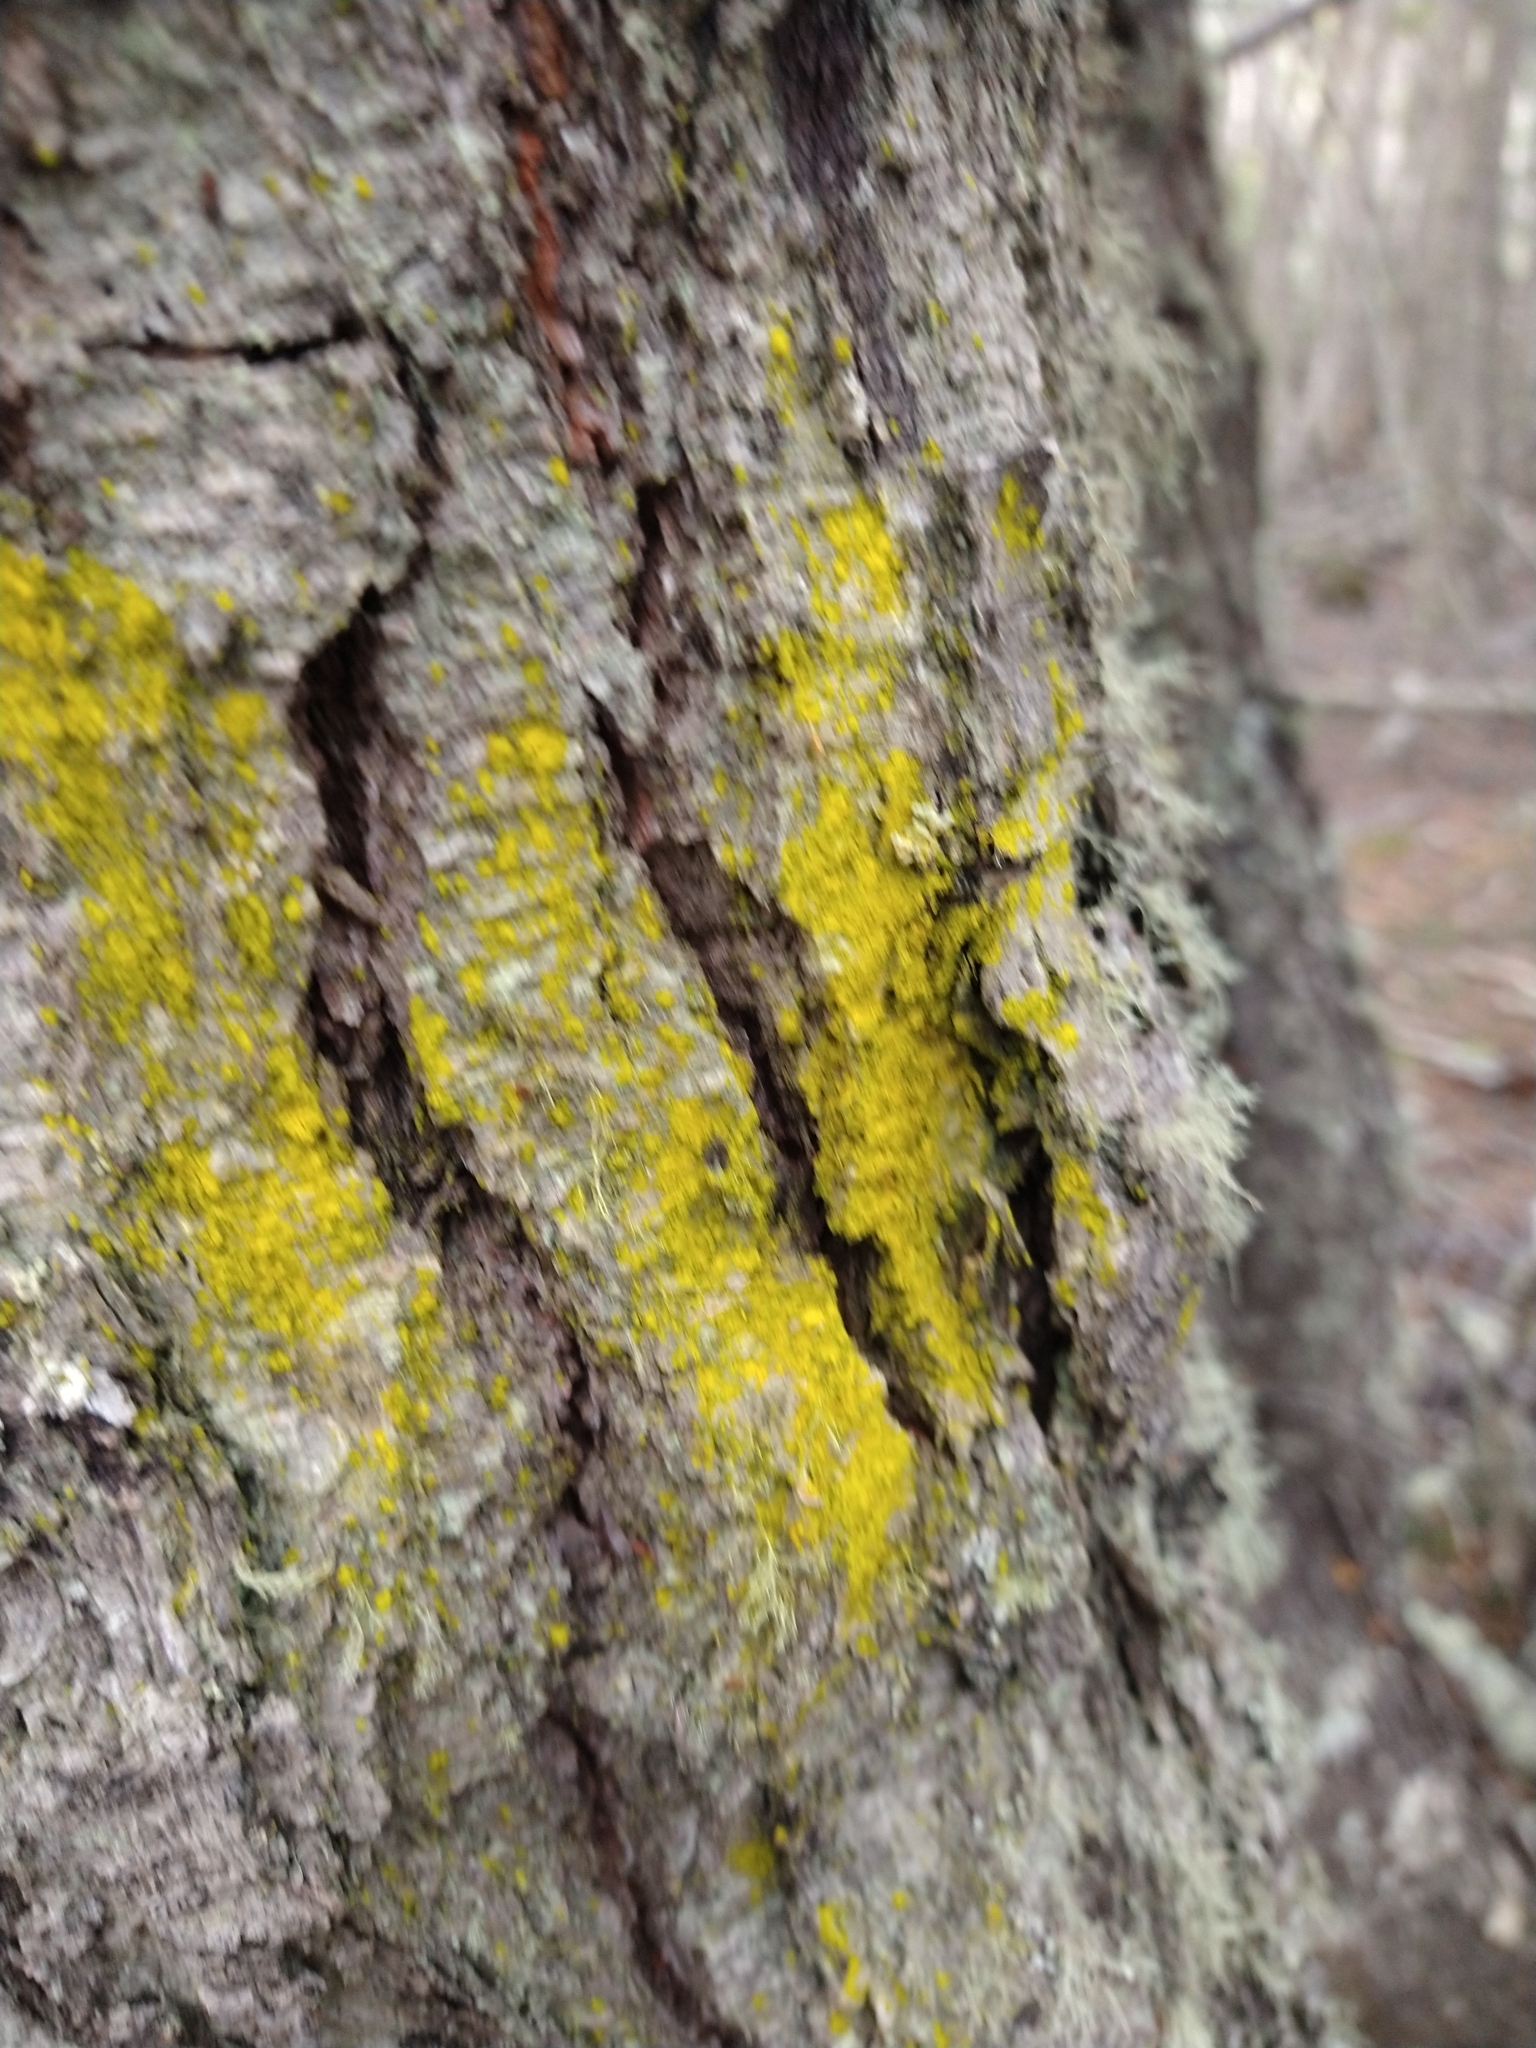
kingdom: Fungi
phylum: Ascomycota
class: Arthoniomycetes
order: Arthoniales
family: Chrysotrichaceae
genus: Chrysothrix
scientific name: Chrysothrix candelaris
